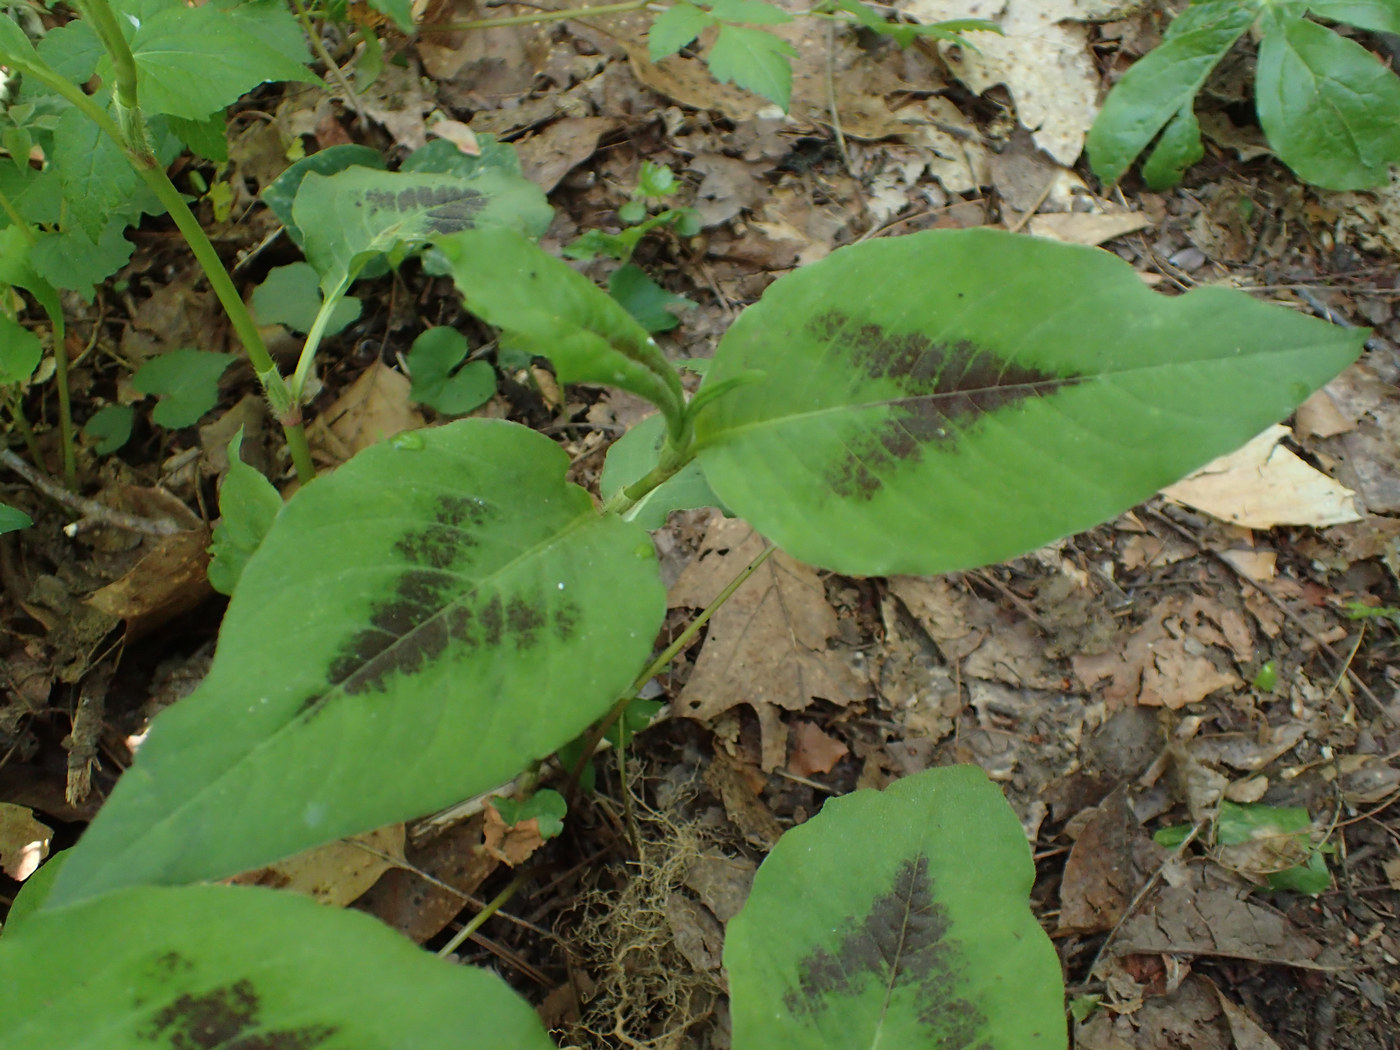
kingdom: Plantae
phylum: Tracheophyta
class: Magnoliopsida
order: Caryophyllales
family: Polygonaceae
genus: Persicaria
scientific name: Persicaria virginiana
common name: Jumpseed
